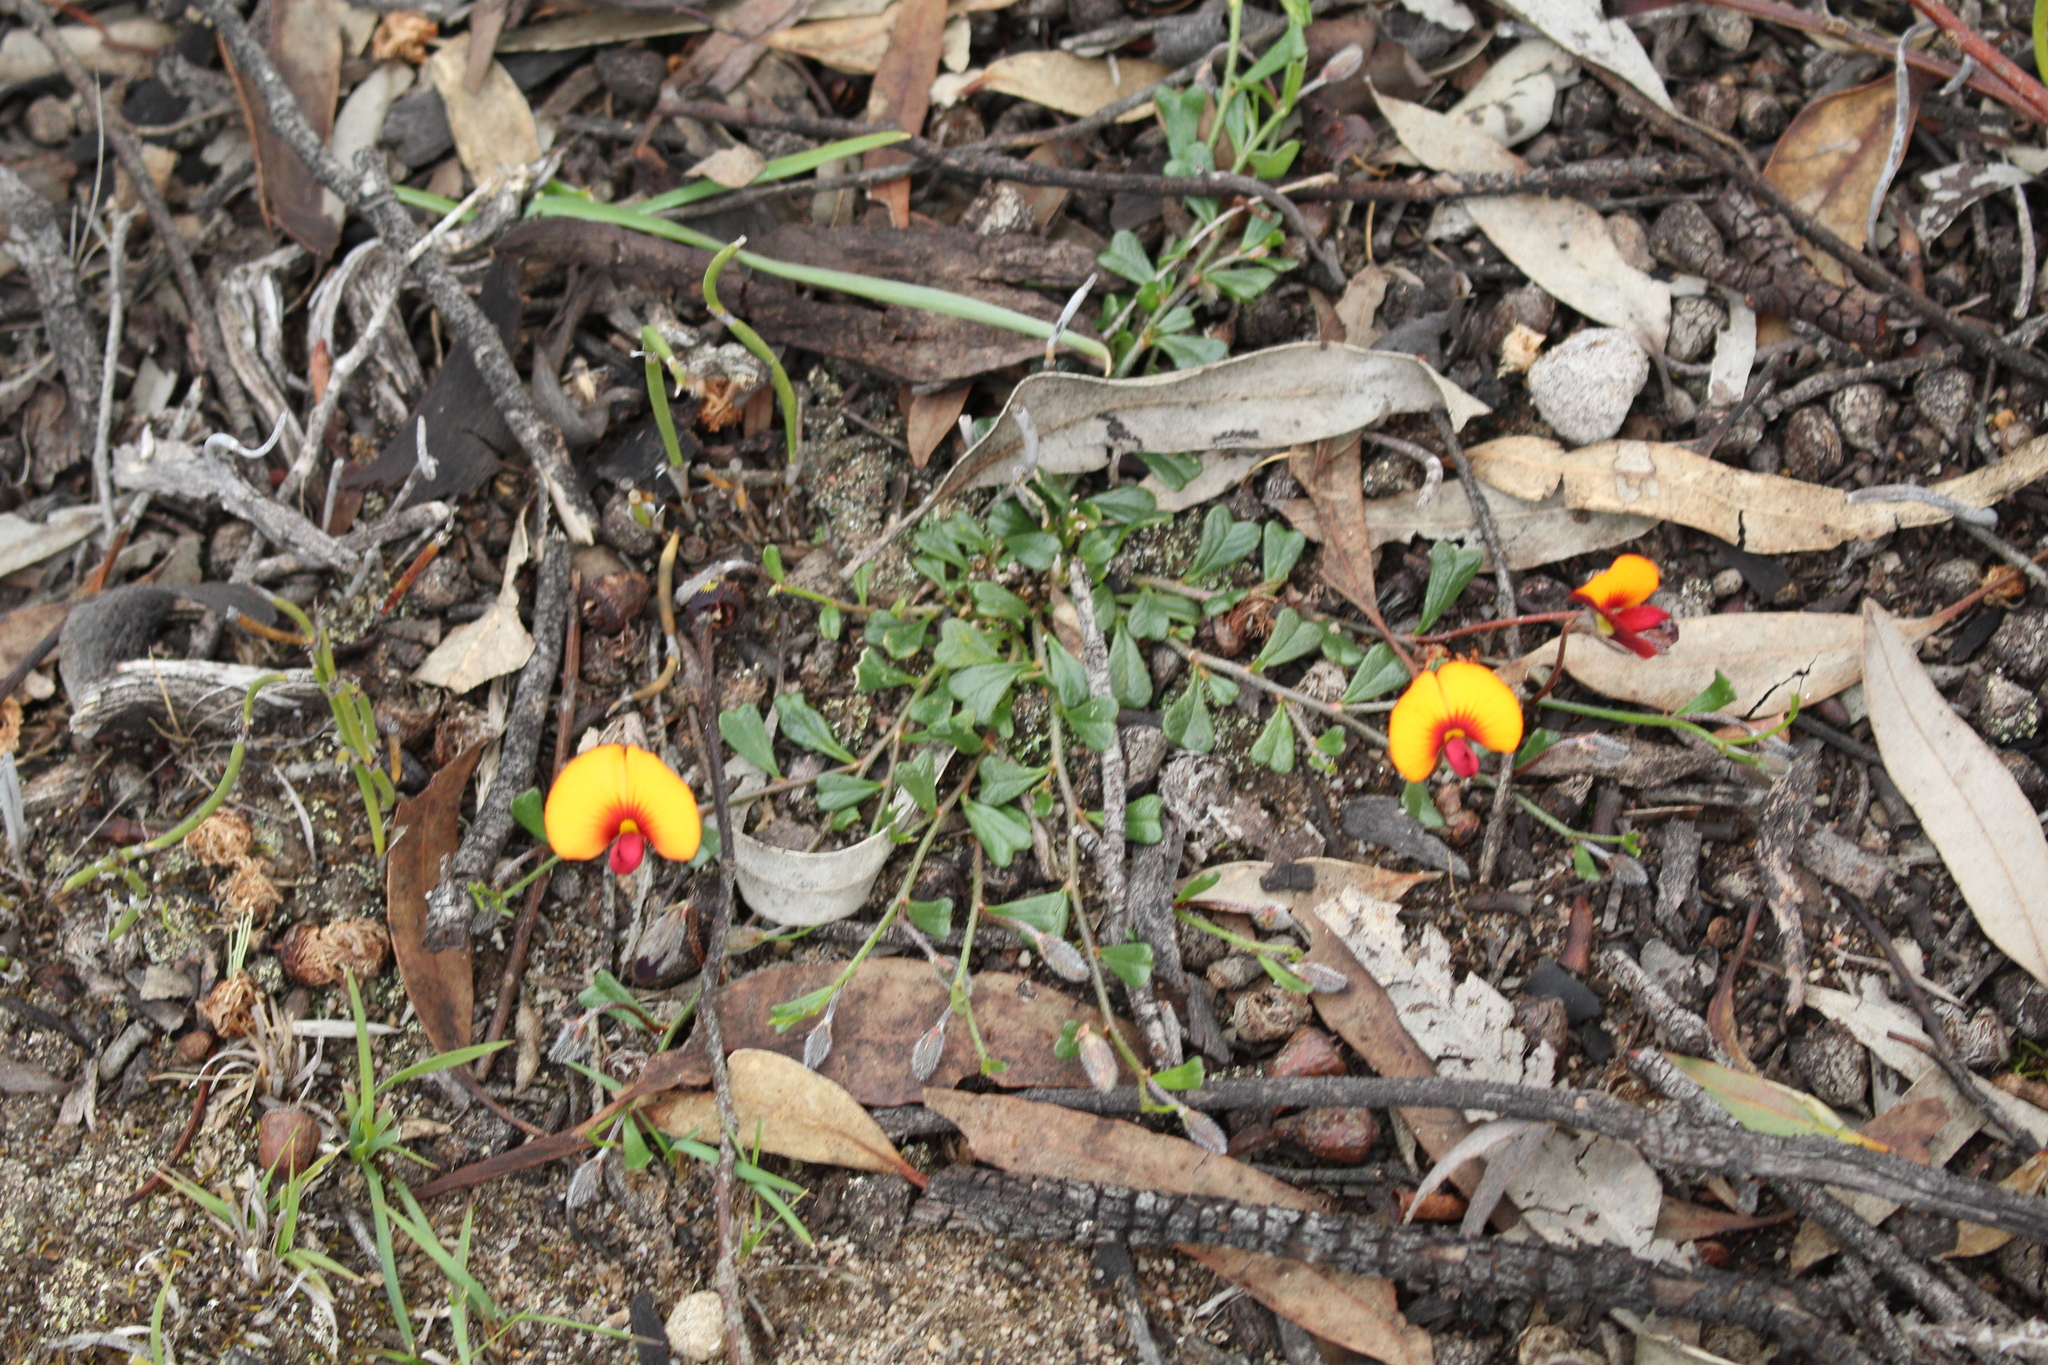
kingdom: Plantae
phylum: Tracheophyta
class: Magnoliopsida
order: Fabales
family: Fabaceae
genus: Isotropis
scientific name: Isotropis cuneifolia
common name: Granny bonnets
